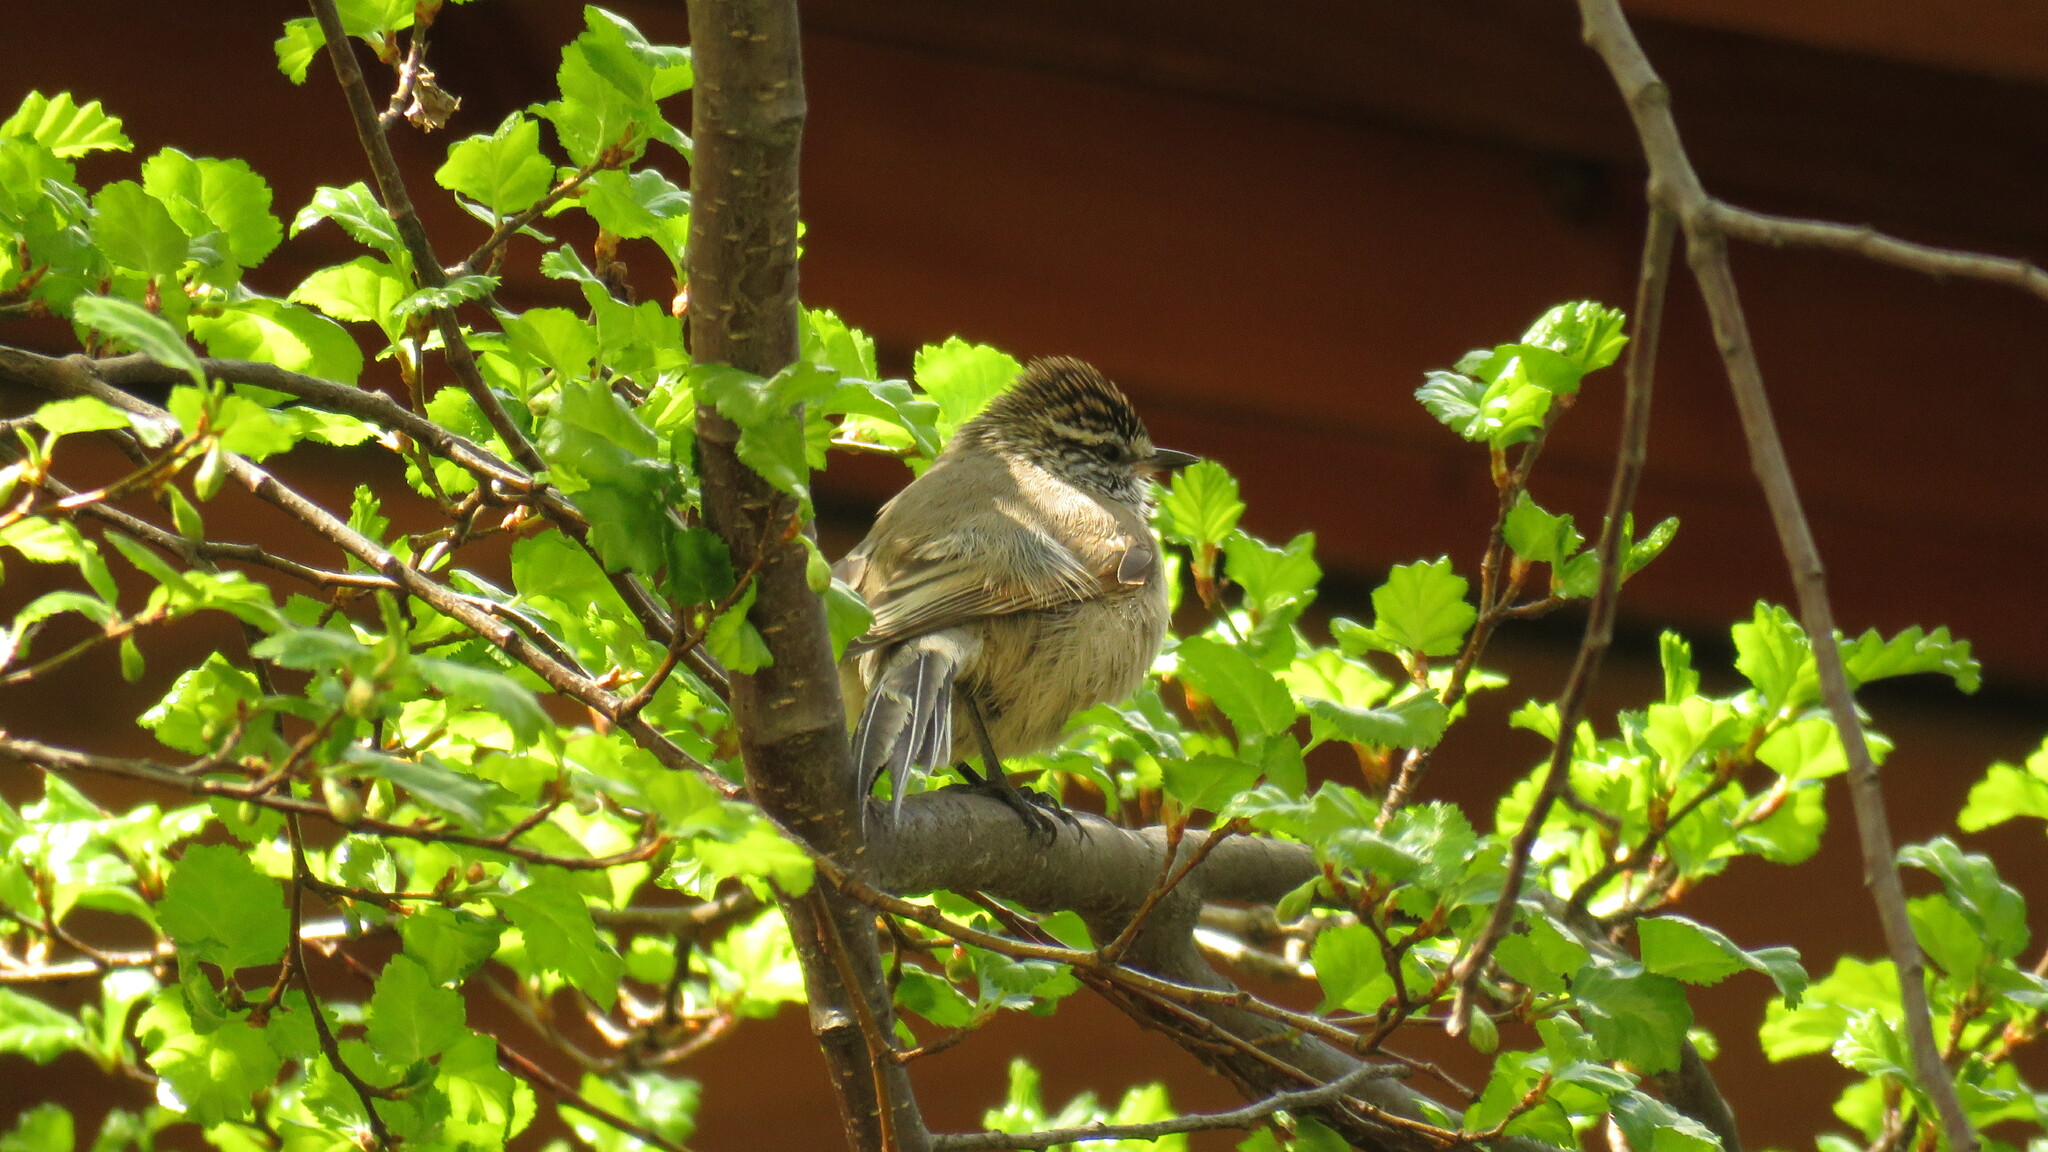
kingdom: Animalia
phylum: Chordata
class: Aves
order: Passeriformes
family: Furnariidae
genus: Leptasthenura
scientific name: Leptasthenura aegithaloides
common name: Plain-mantled tit-spinetail
